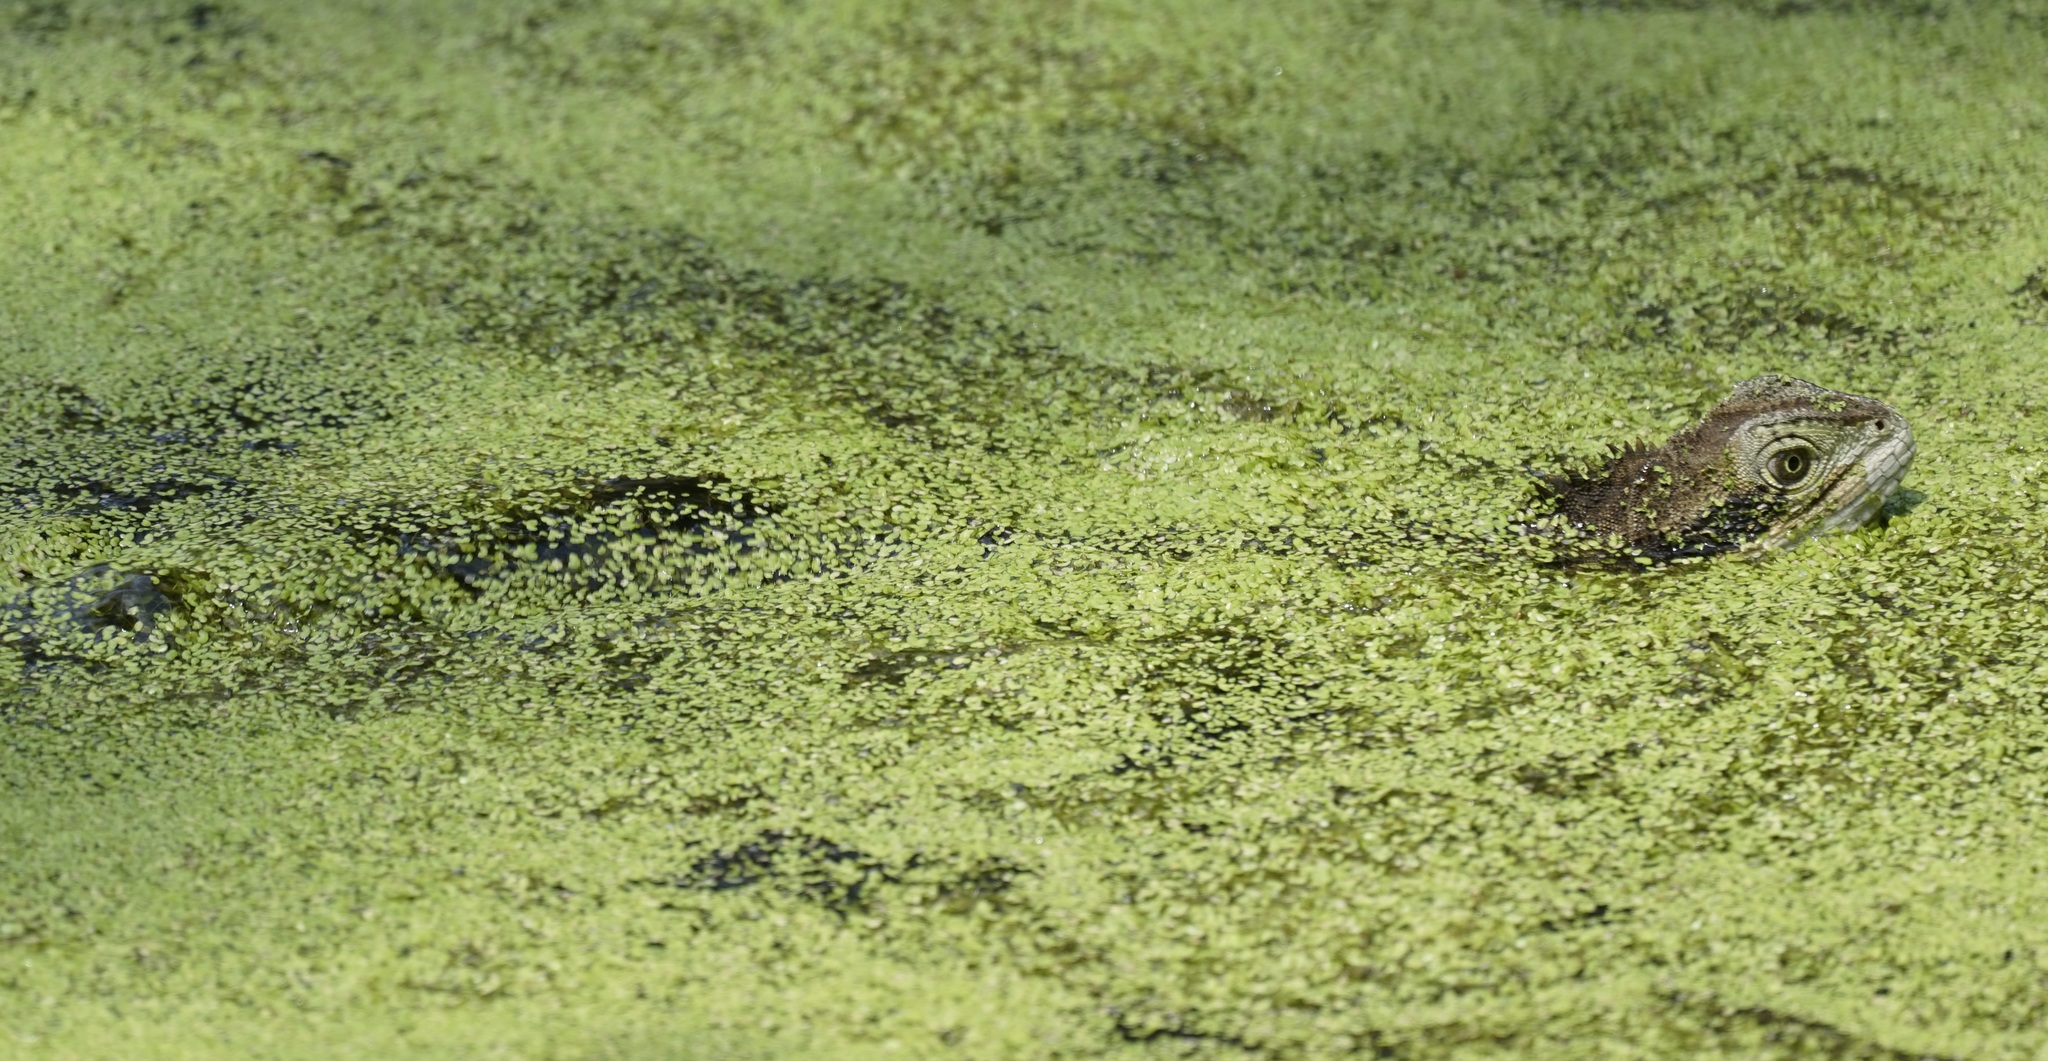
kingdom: Animalia
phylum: Chordata
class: Squamata
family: Agamidae
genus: Intellagama
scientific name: Intellagama lesueurii
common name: Eastern water dragon
